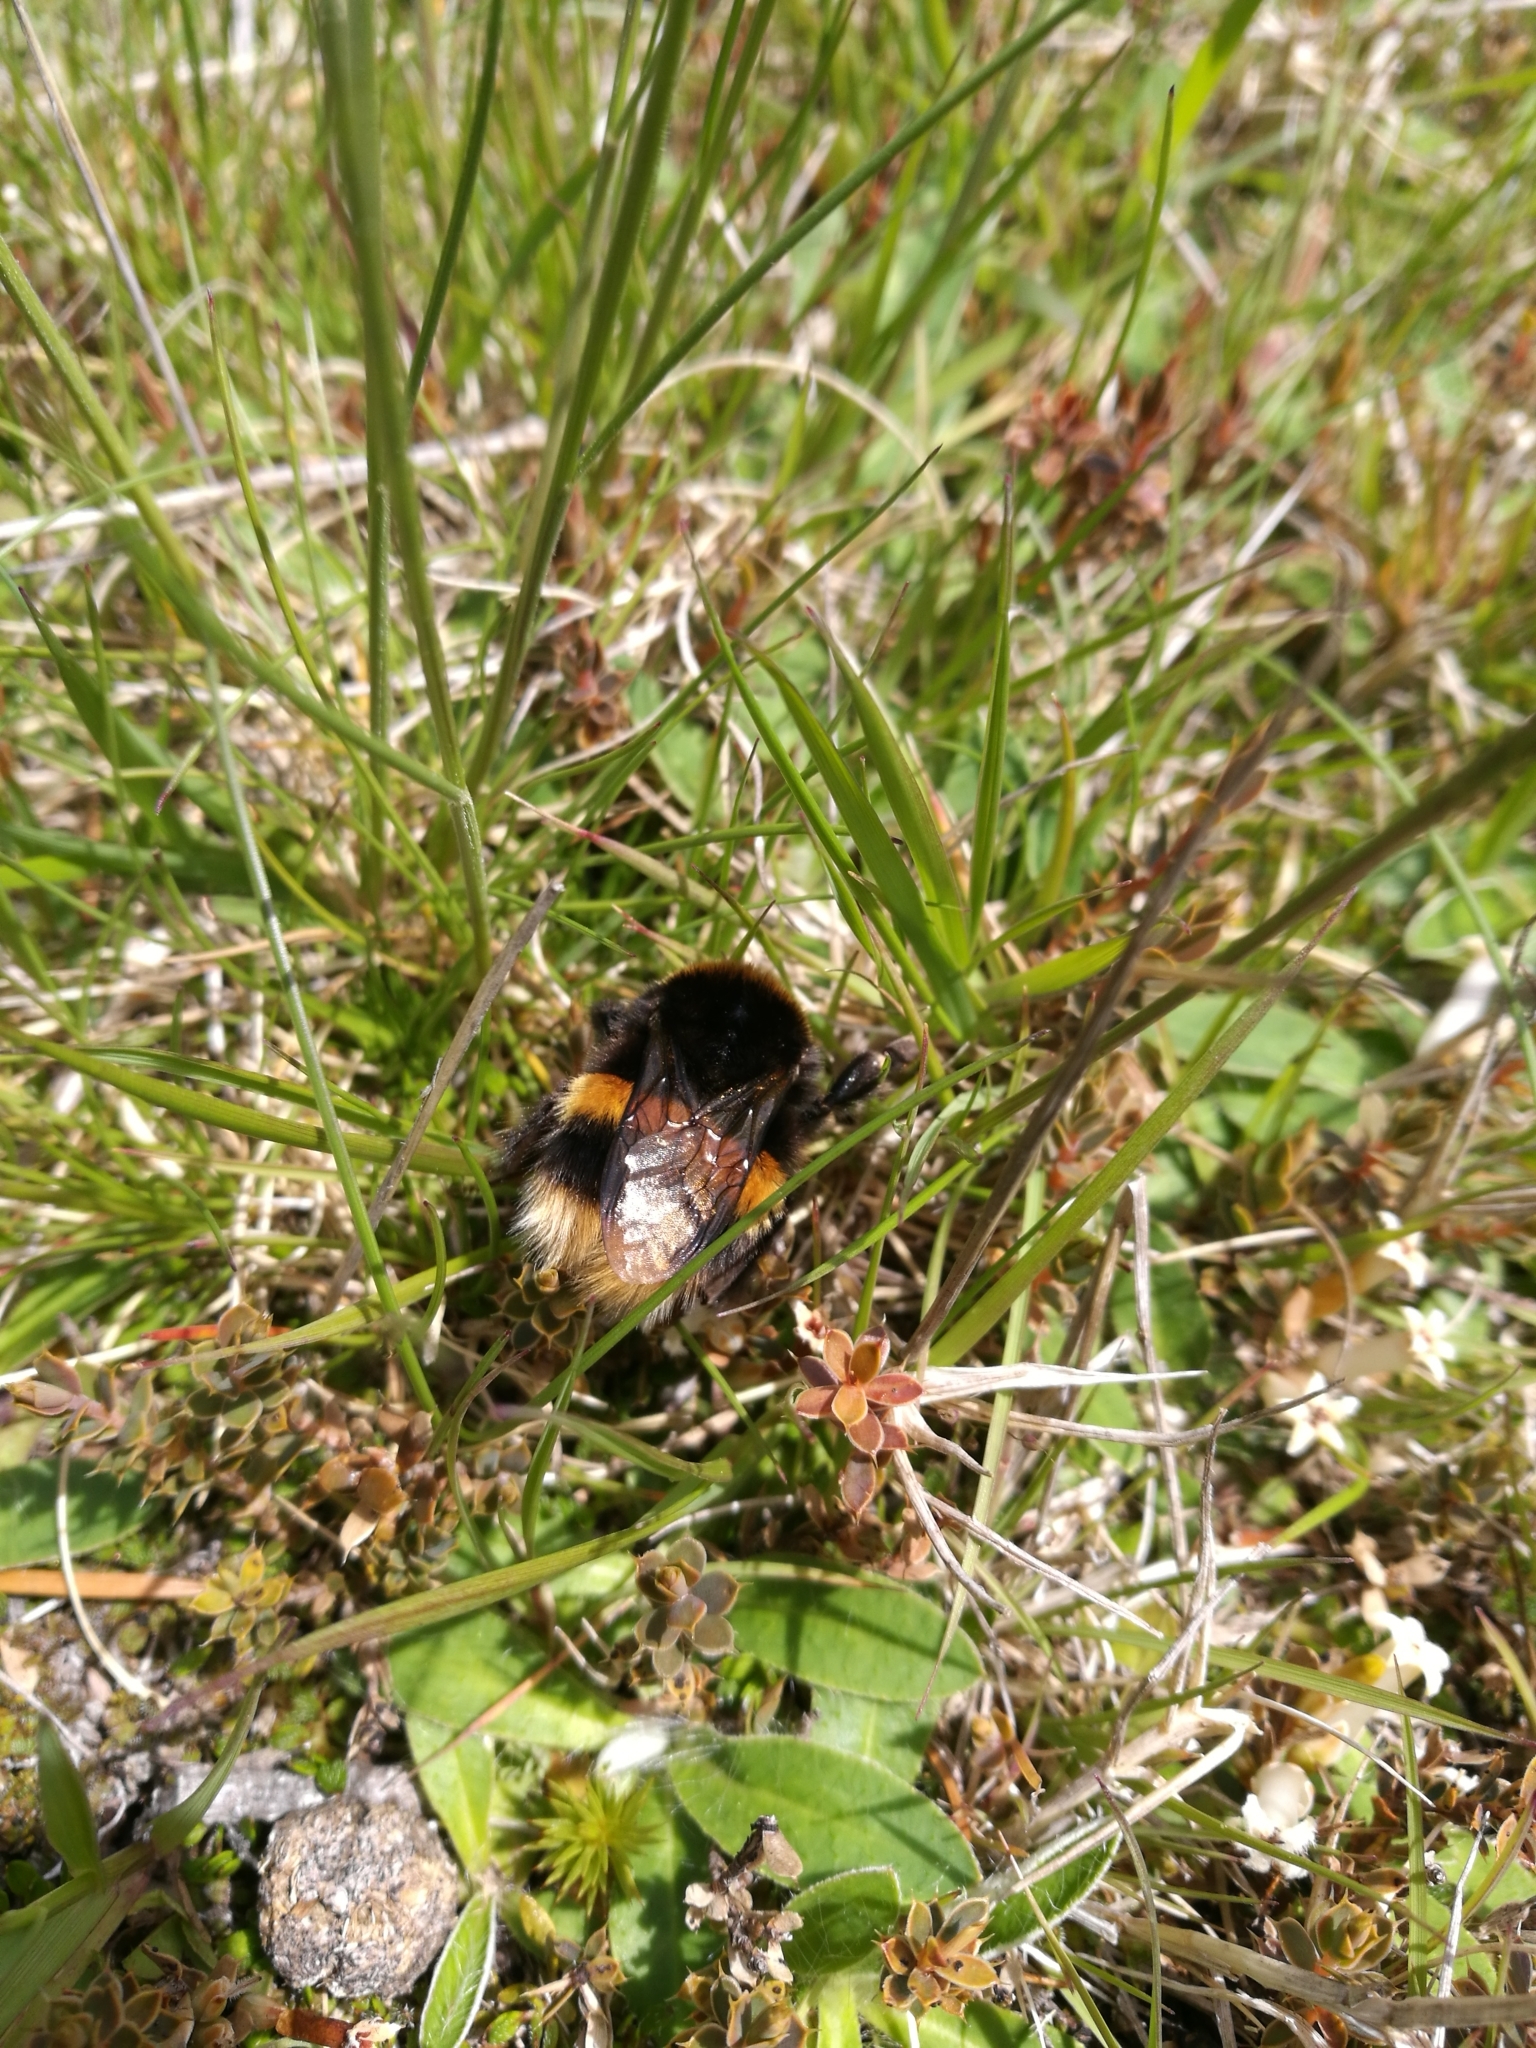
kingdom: Animalia
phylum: Arthropoda
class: Insecta
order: Hymenoptera
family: Apidae
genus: Bombus
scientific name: Bombus terrestris
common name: Buff-tailed bumblebee
